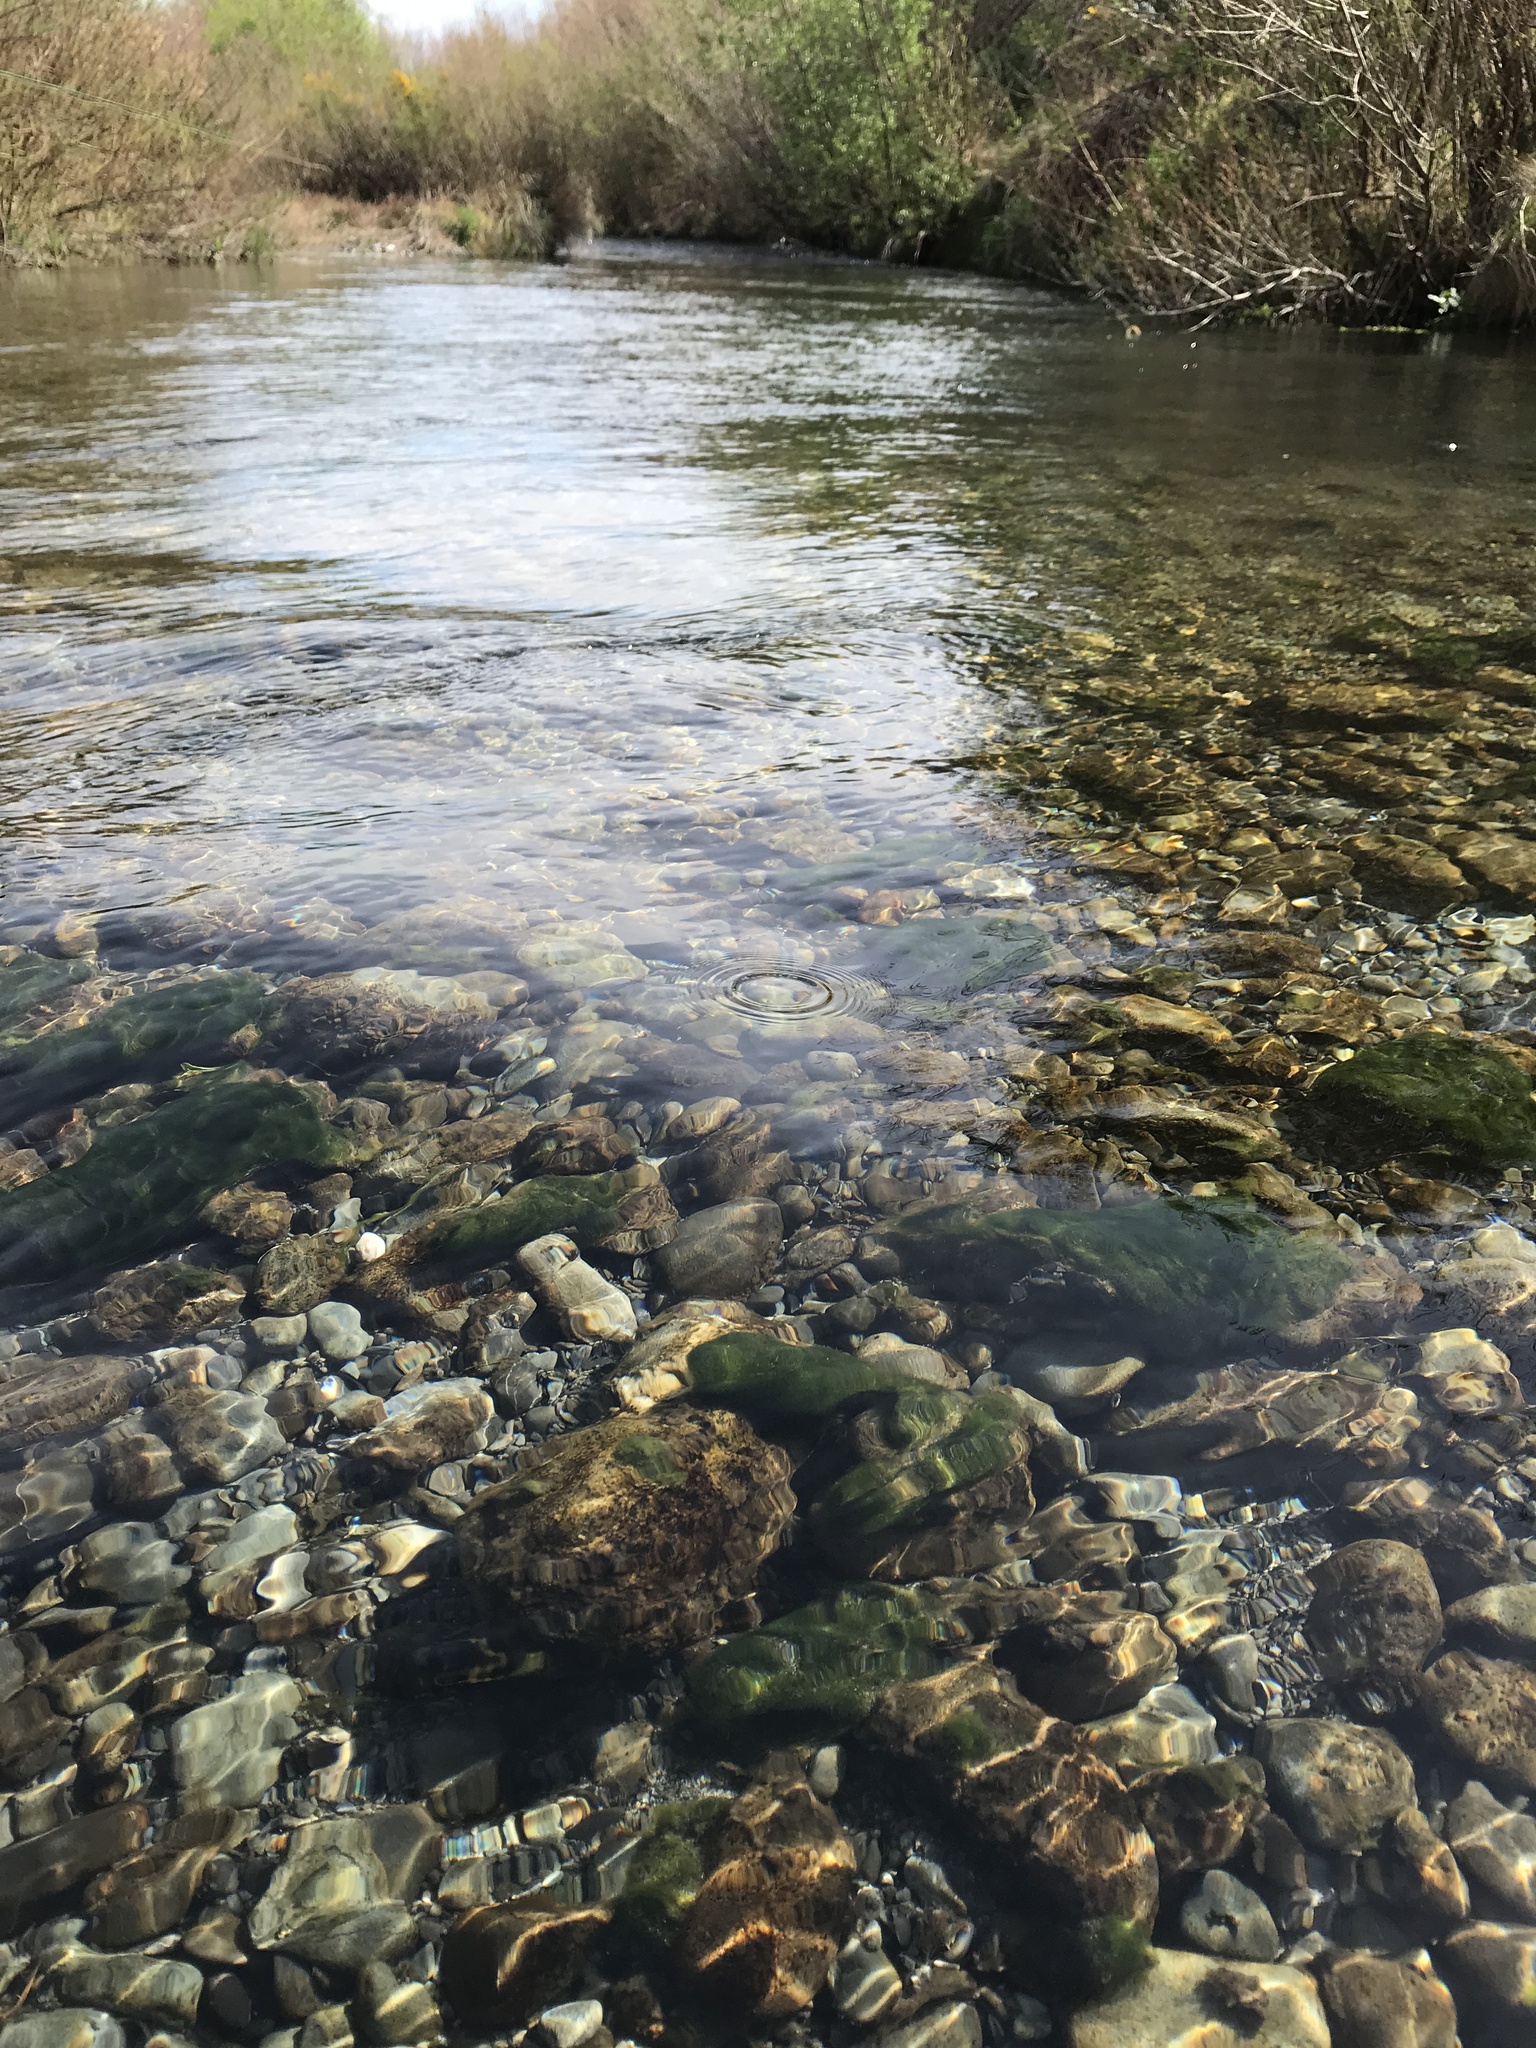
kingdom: Chromista
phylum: Ochrophyta
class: Xanthophyceae
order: Vaucheriales
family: Vaucheriaceae
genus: Vaucheria
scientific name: Vaucheria
